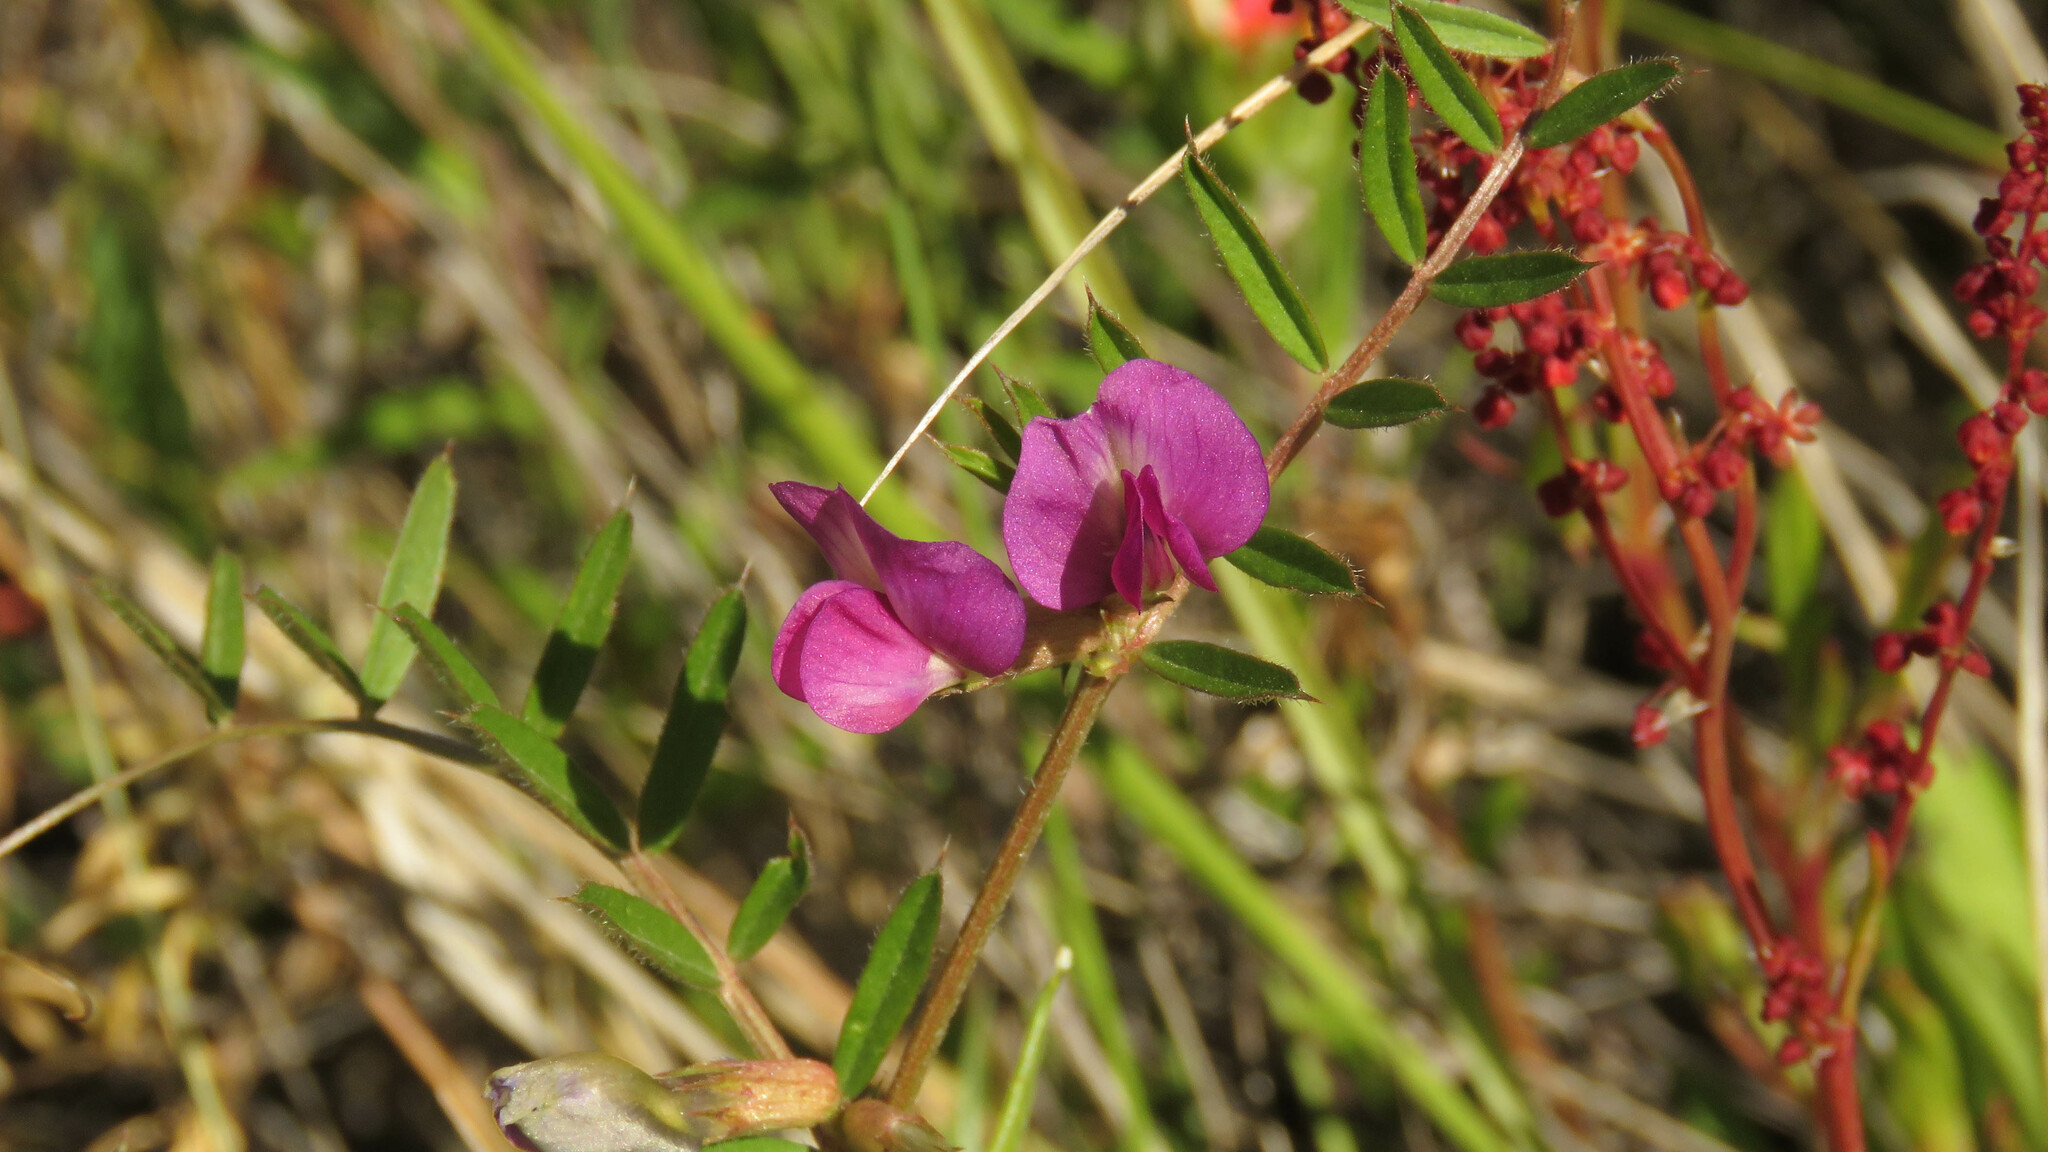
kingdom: Plantae
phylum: Tracheophyta
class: Magnoliopsida
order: Fabales
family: Fabaceae
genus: Vicia
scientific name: Vicia sativa
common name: Garden vetch
